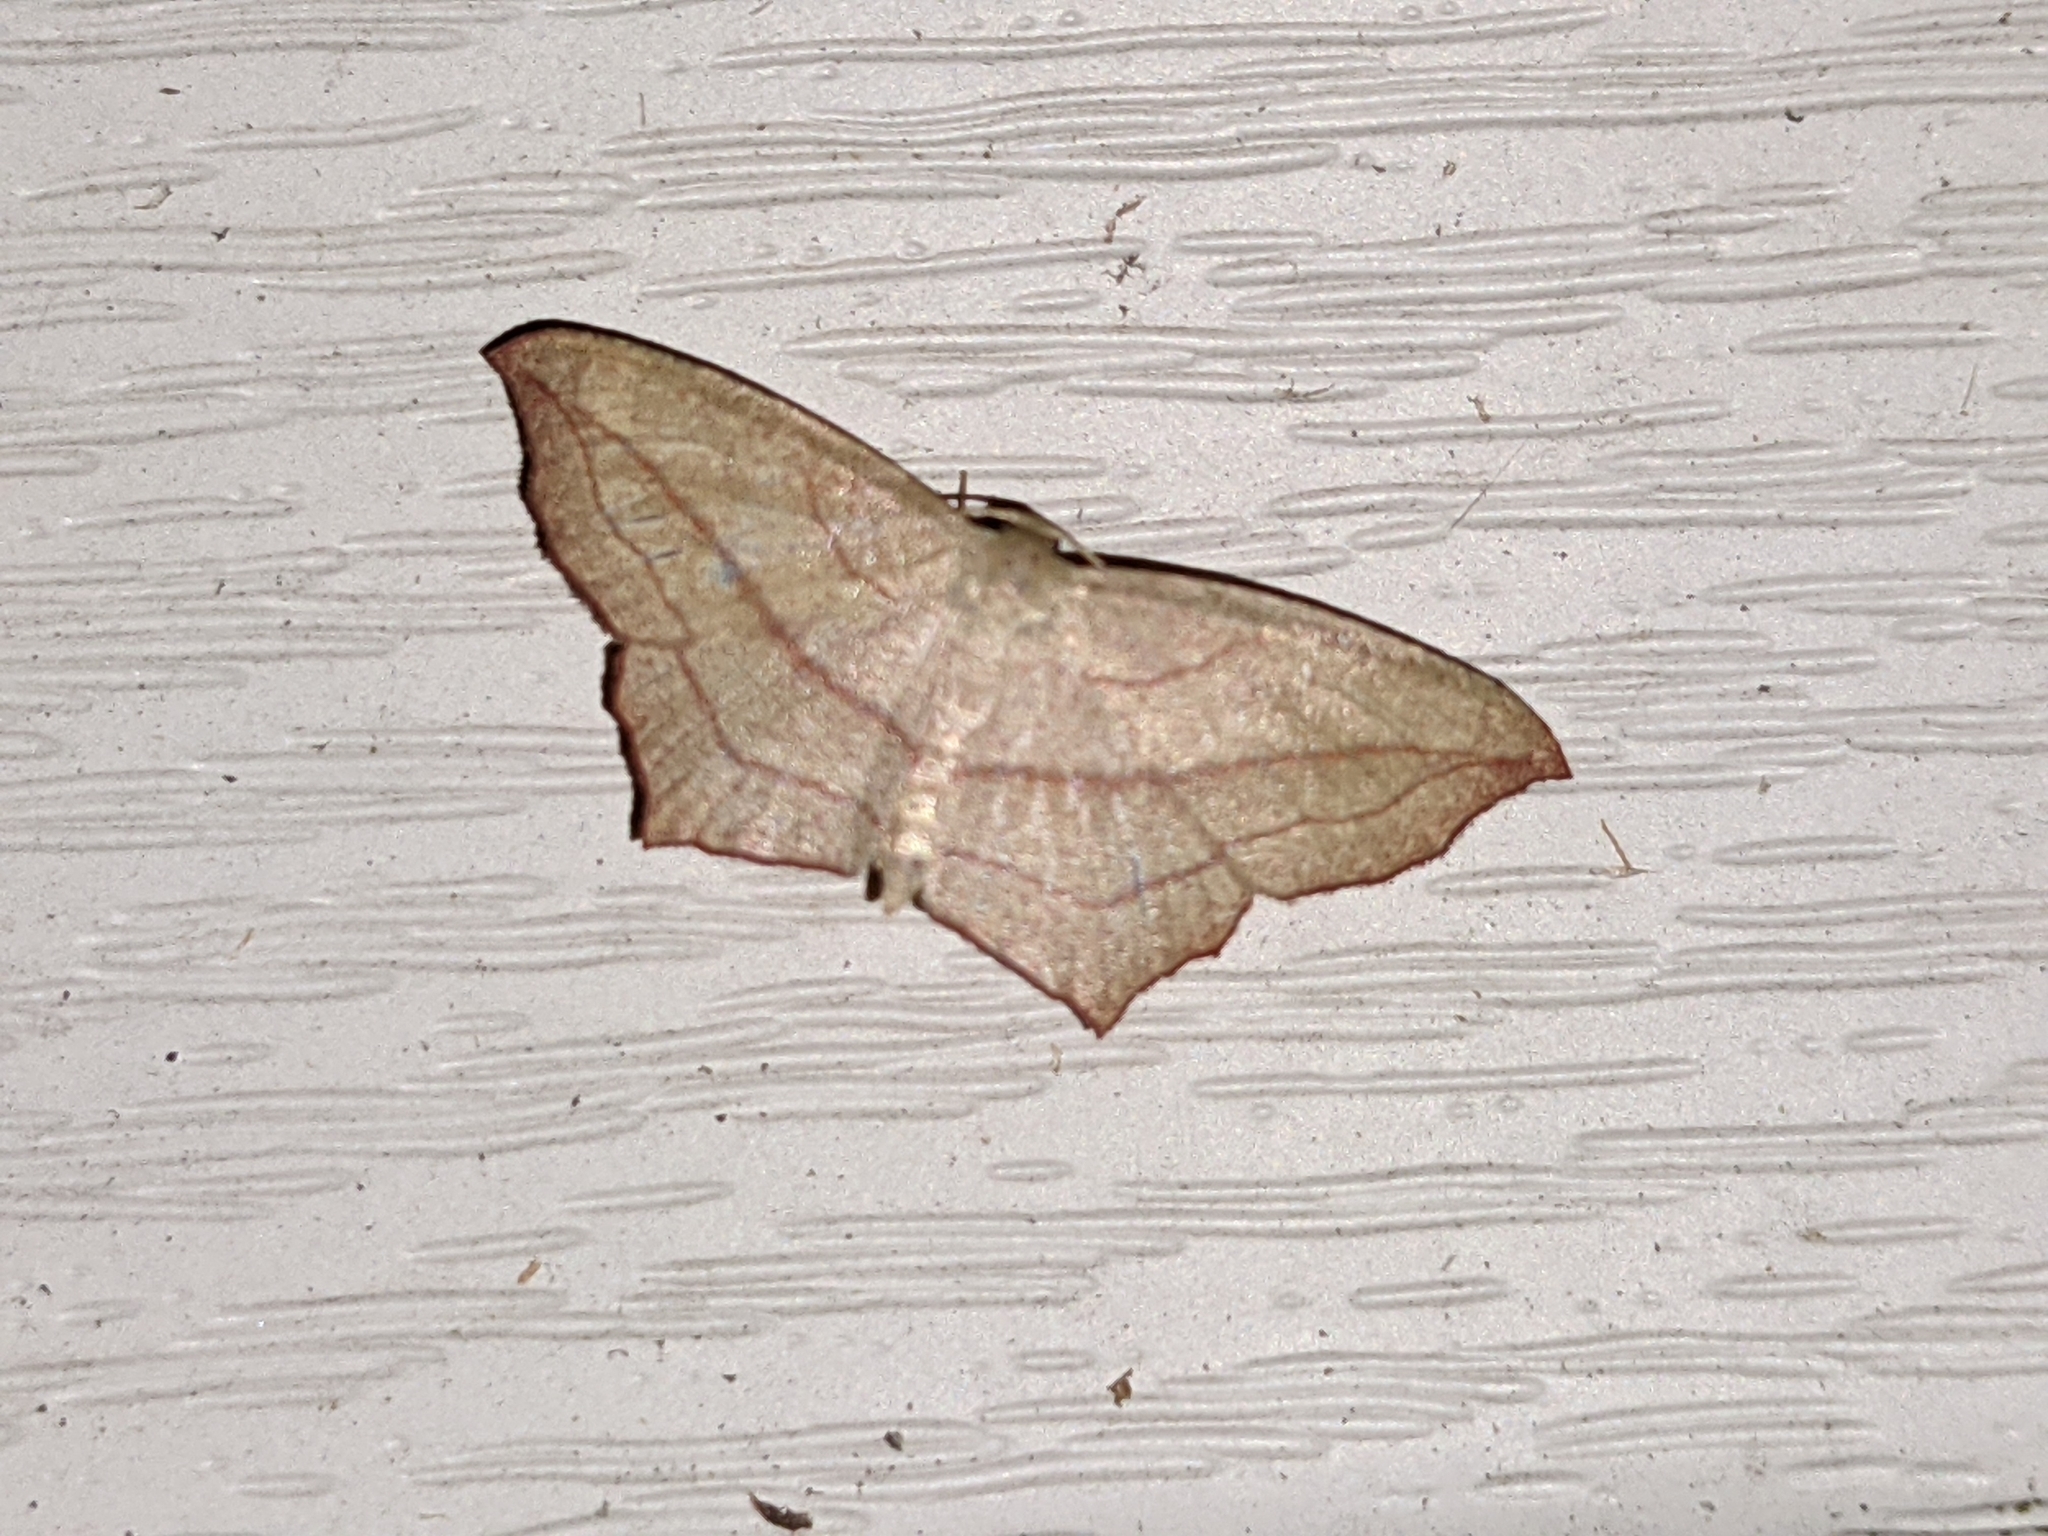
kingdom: Animalia
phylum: Arthropoda
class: Insecta
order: Lepidoptera
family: Geometridae
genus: Timandra
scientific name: Timandra amaturaria
